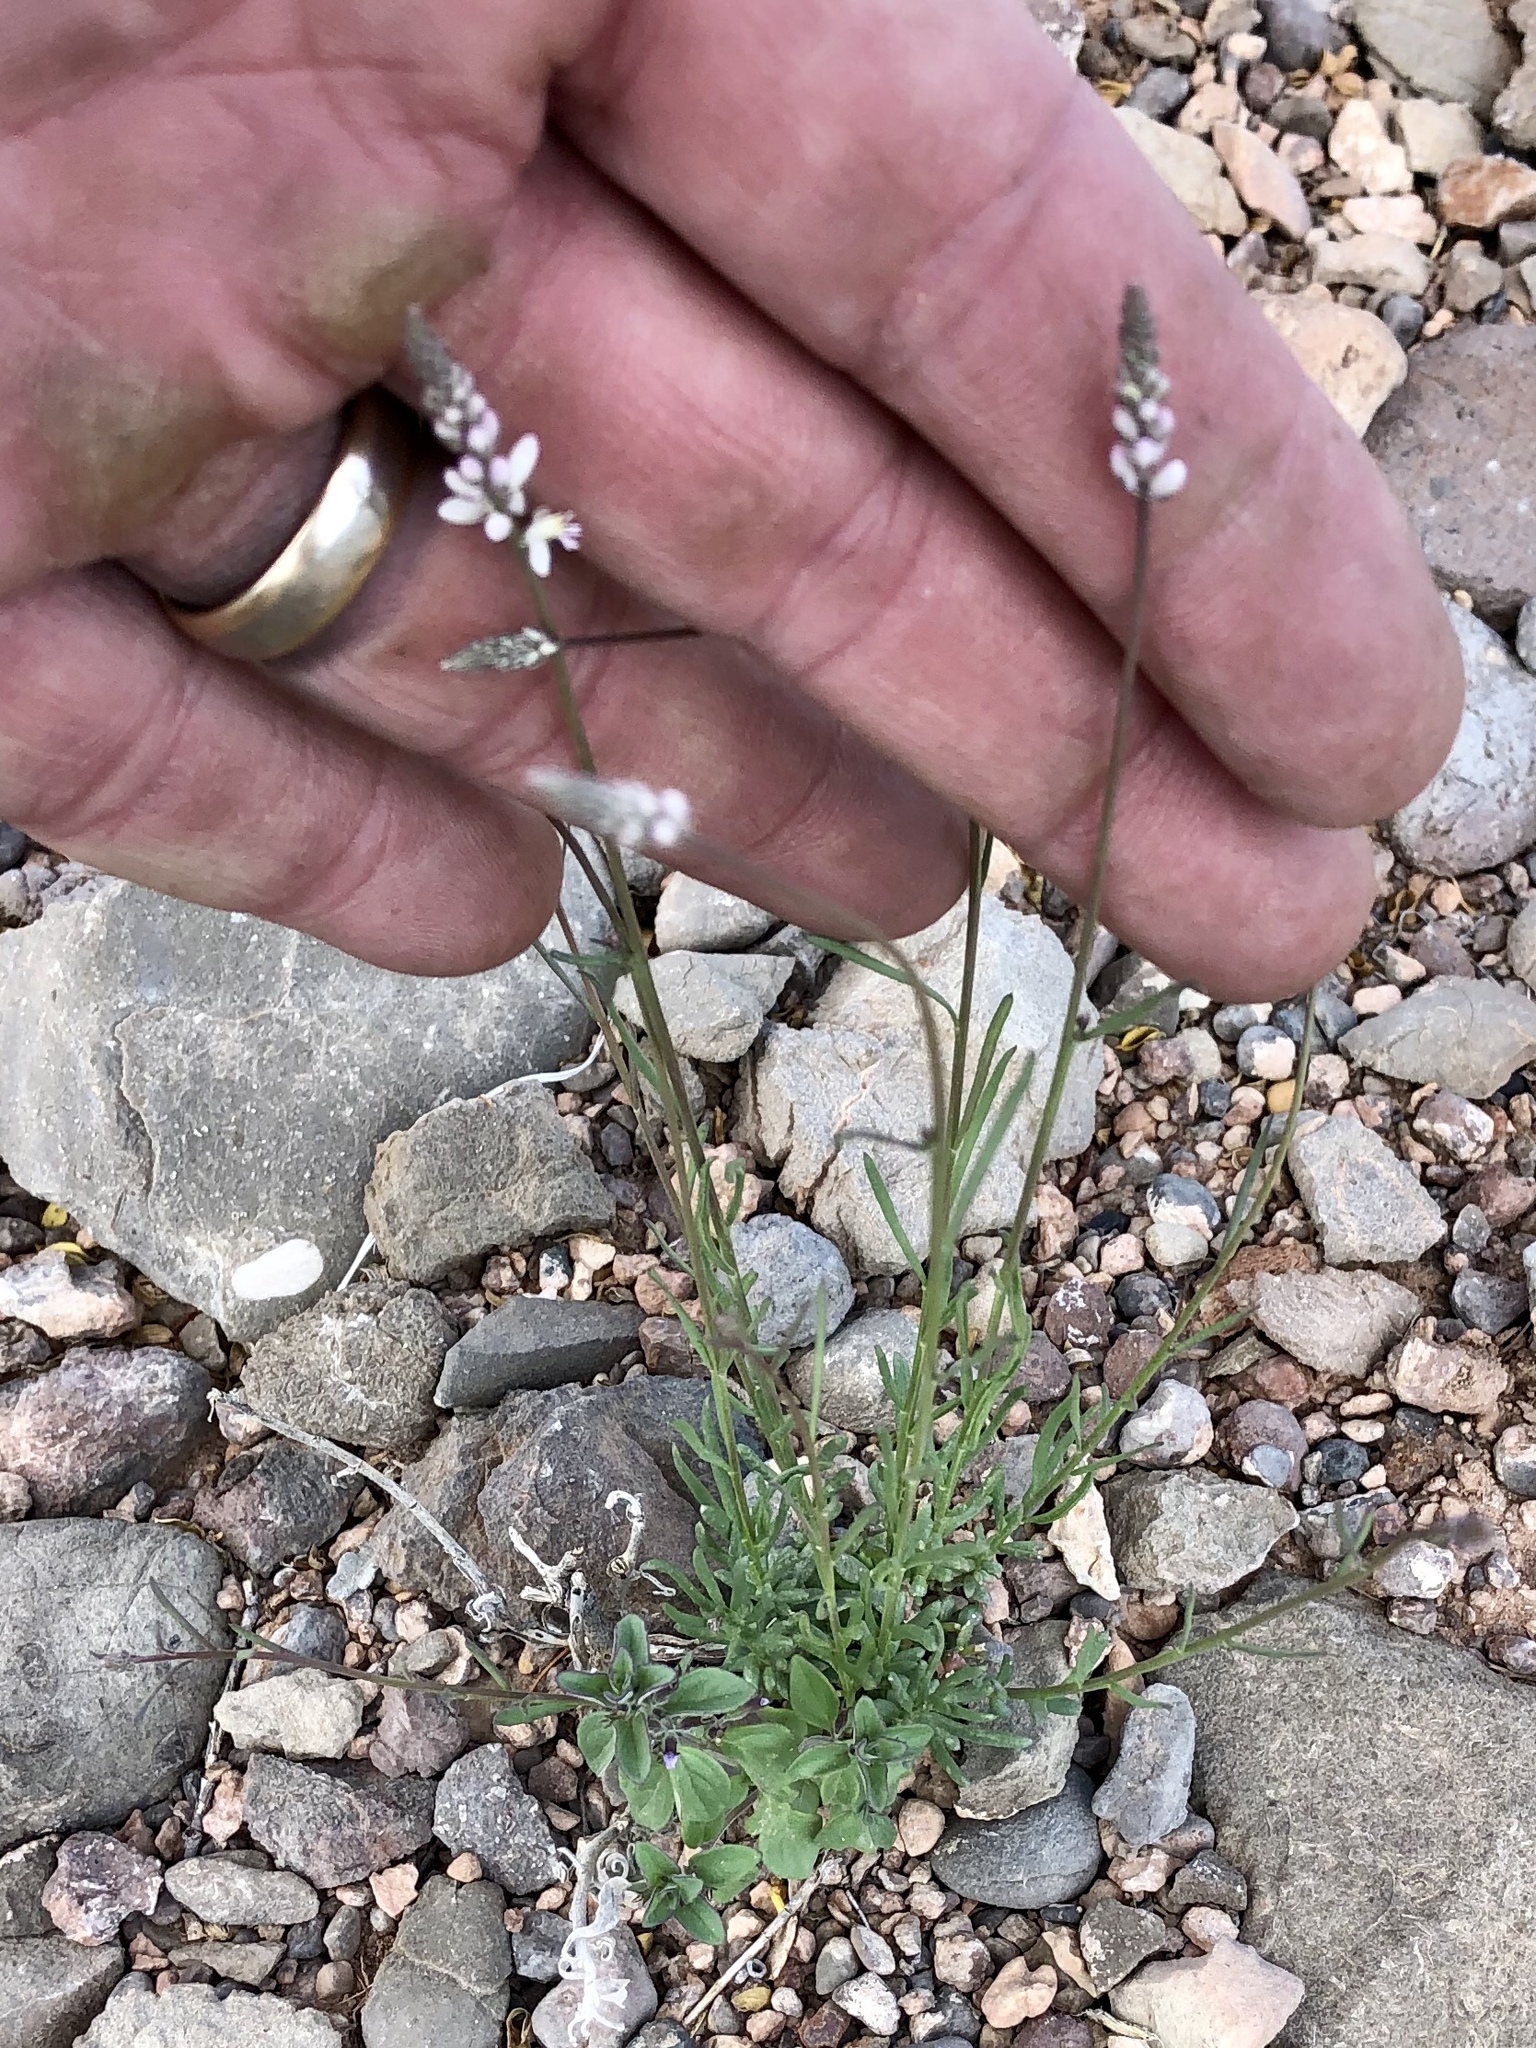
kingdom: Plantae
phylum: Tracheophyta
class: Magnoliopsida
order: Fabales
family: Polygalaceae
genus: Polygala
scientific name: Polygala alba
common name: White milkwort
